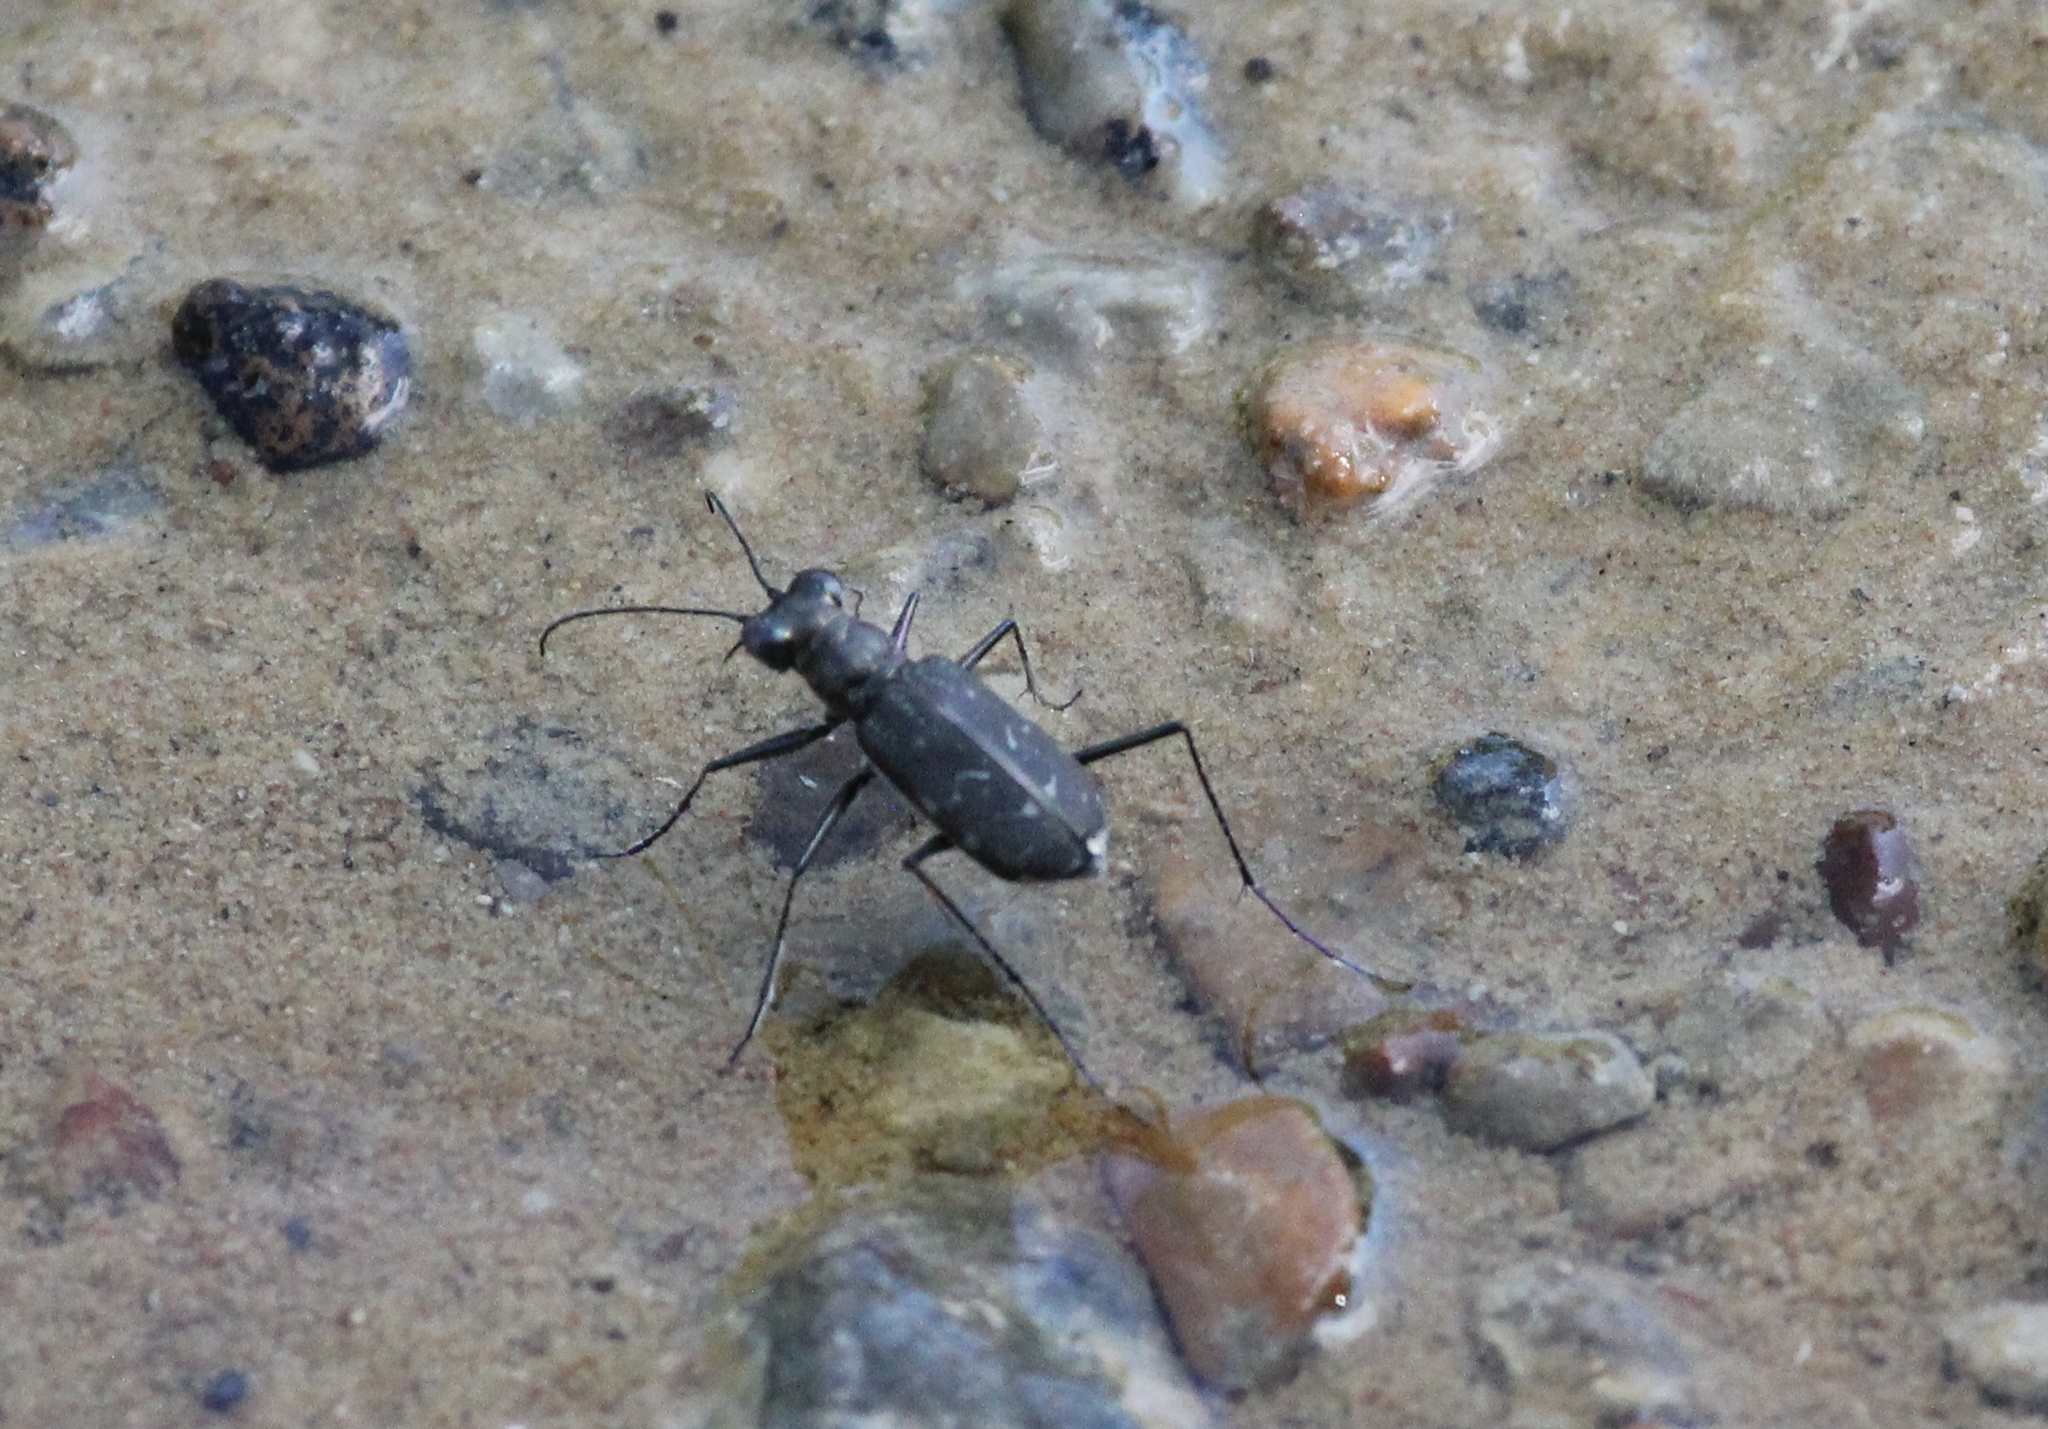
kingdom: Animalia
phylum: Arthropoda
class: Insecta
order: Coleoptera
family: Carabidae
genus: Cicindela
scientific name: Cicindela trifasciata
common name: Mudflat tiger beetle
